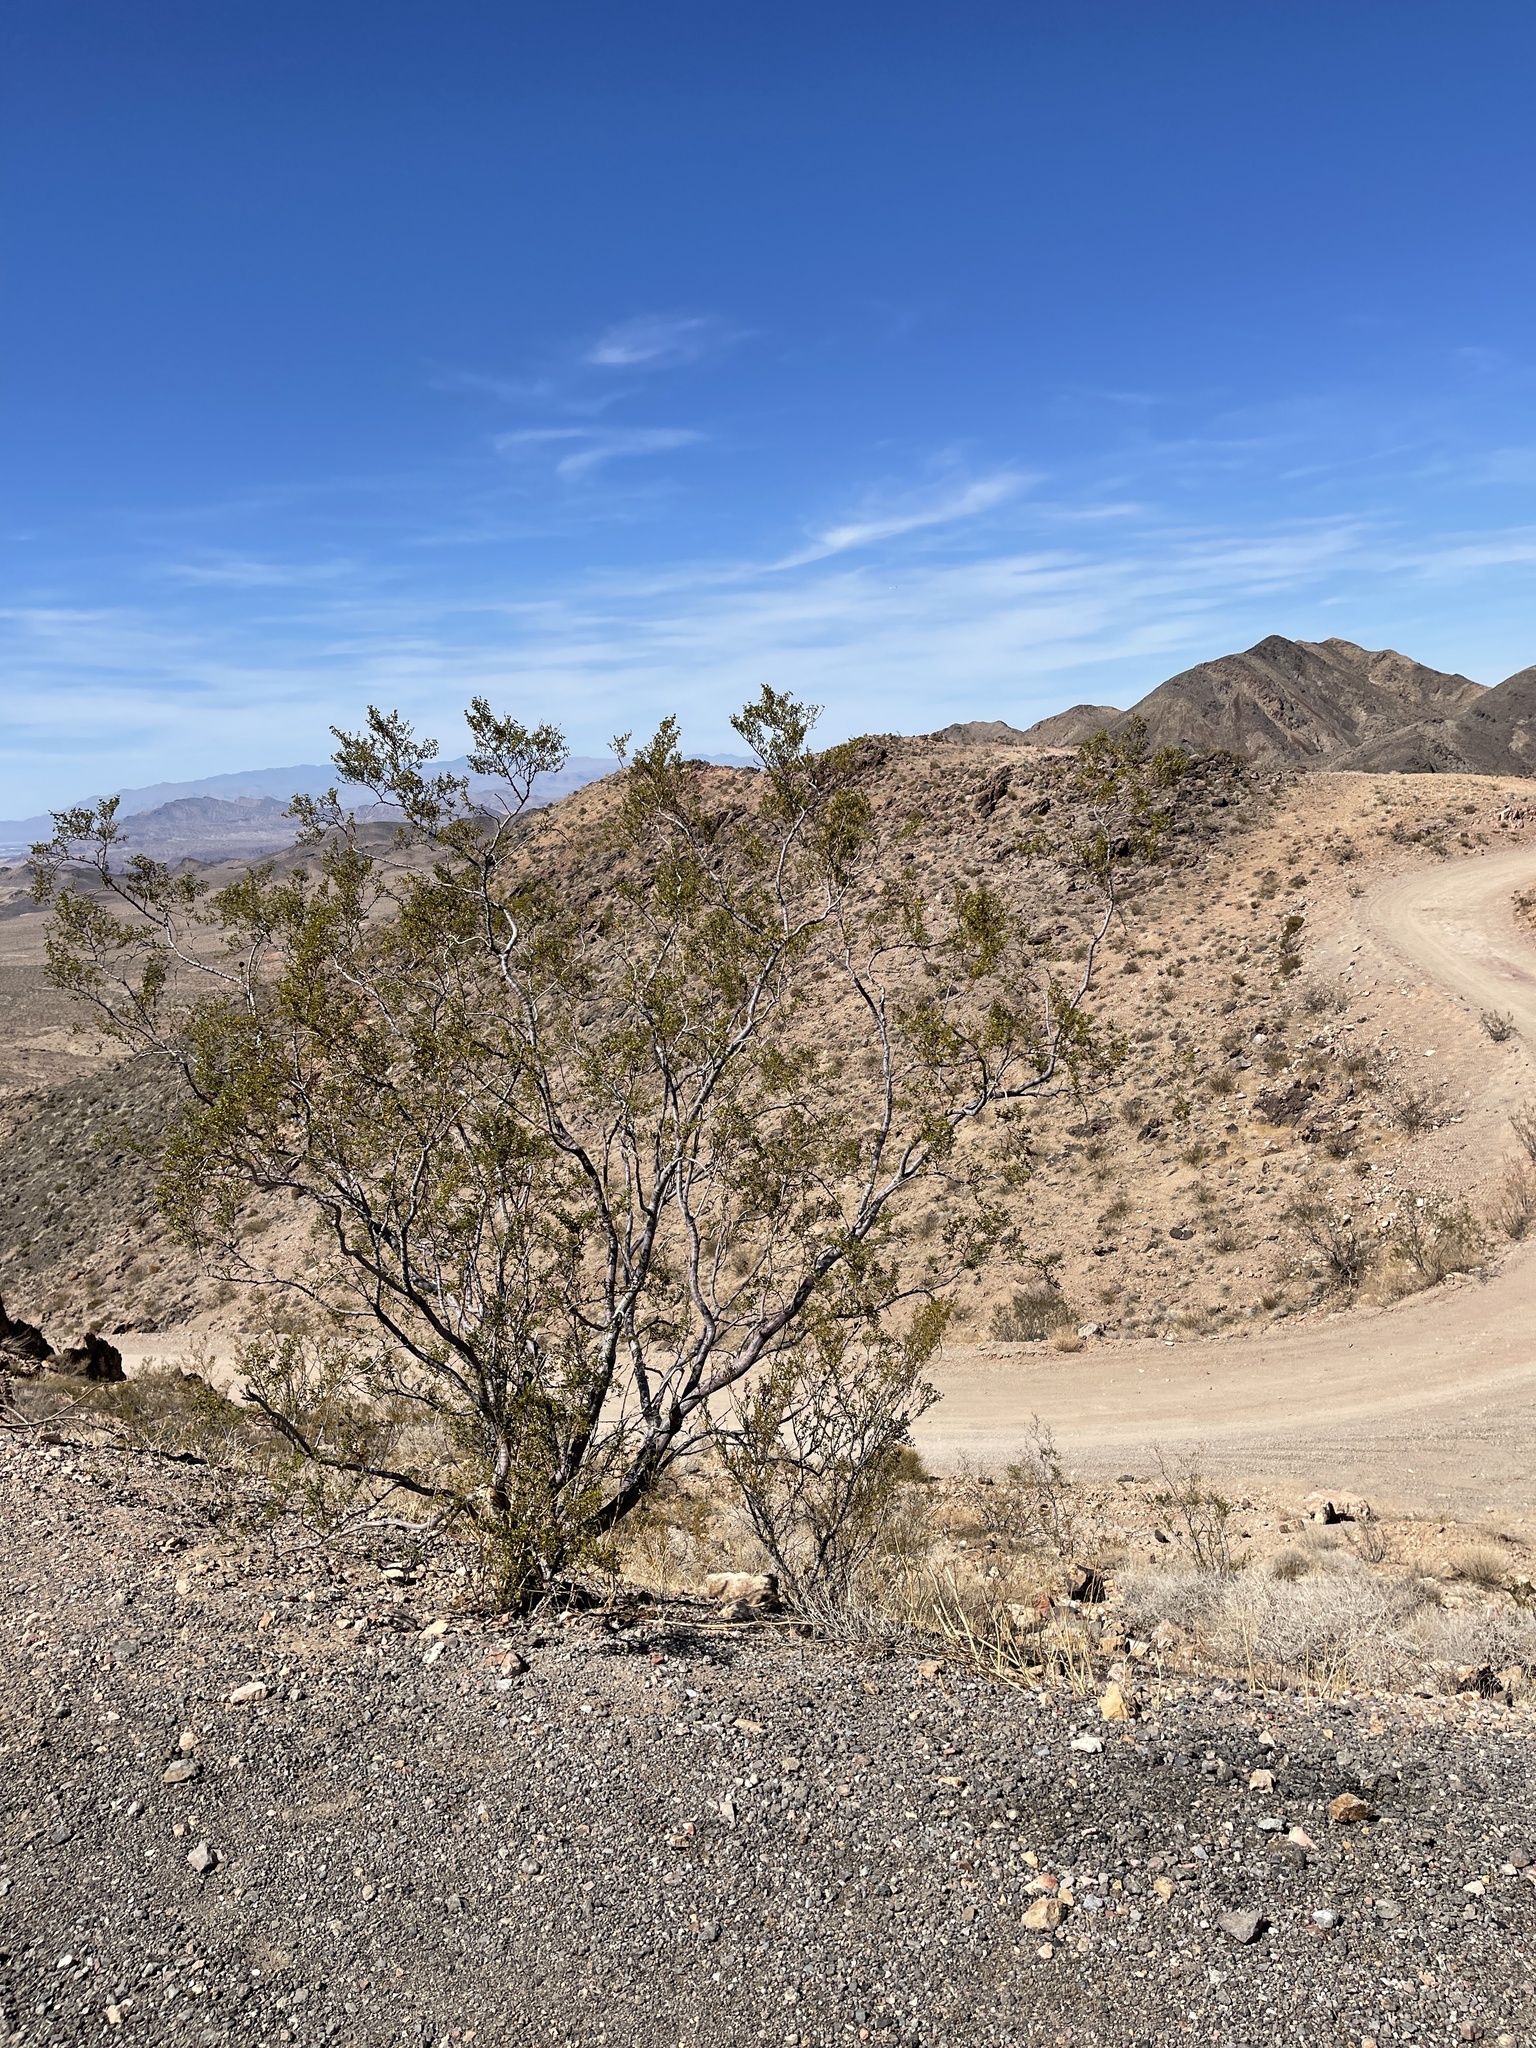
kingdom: Plantae
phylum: Tracheophyta
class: Magnoliopsida
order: Zygophyllales
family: Zygophyllaceae
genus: Larrea
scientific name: Larrea tridentata
